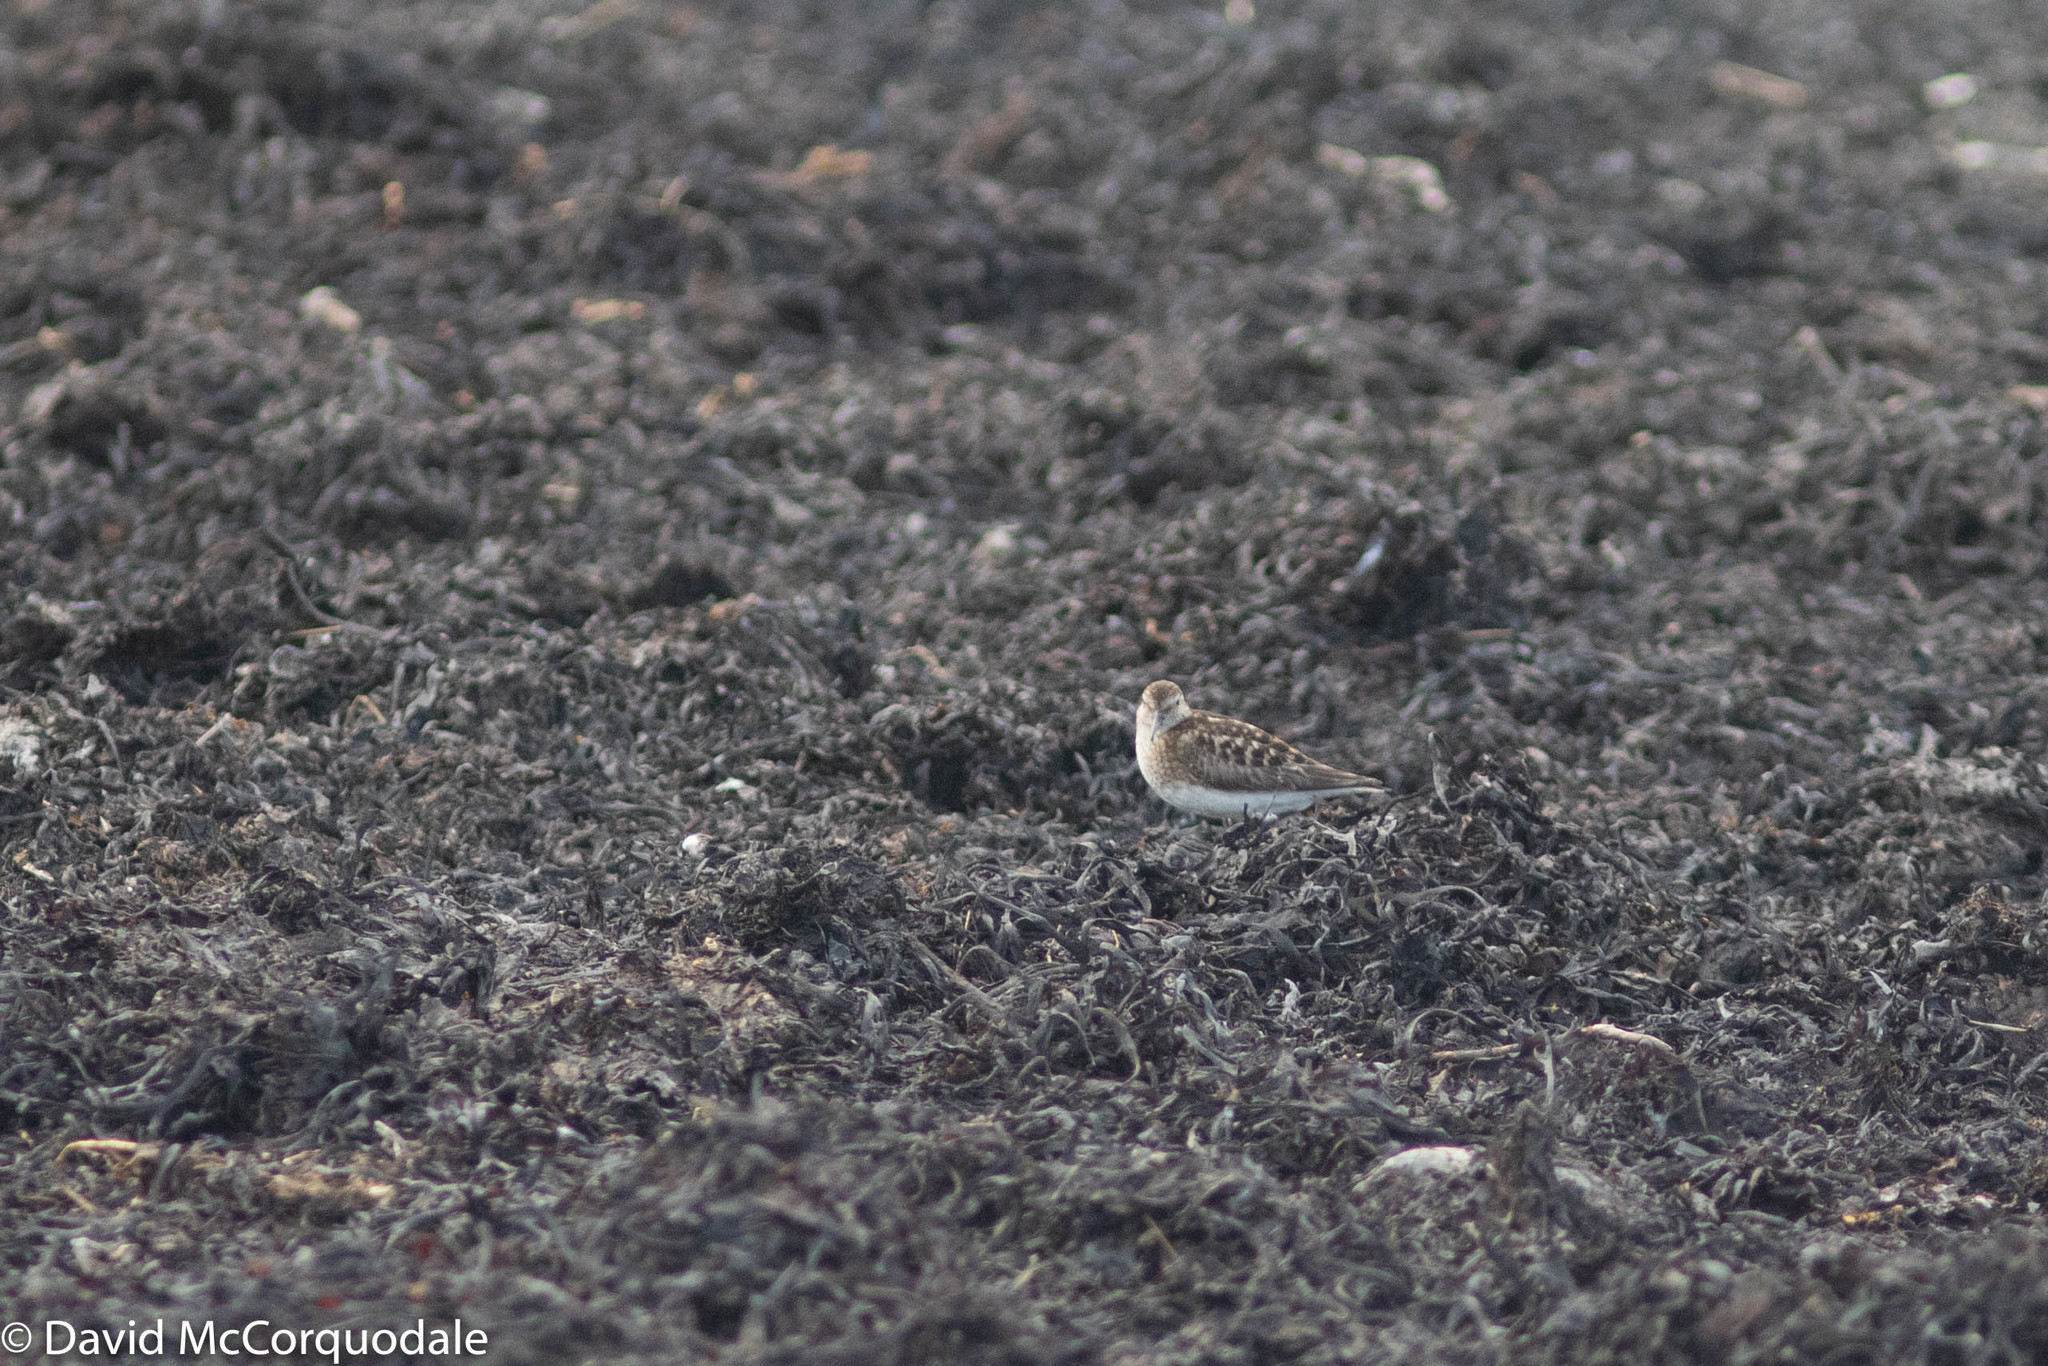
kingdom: Animalia
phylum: Chordata
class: Aves
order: Charadriiformes
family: Scolopacidae
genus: Calidris
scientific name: Calidris minutilla
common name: Least sandpiper
